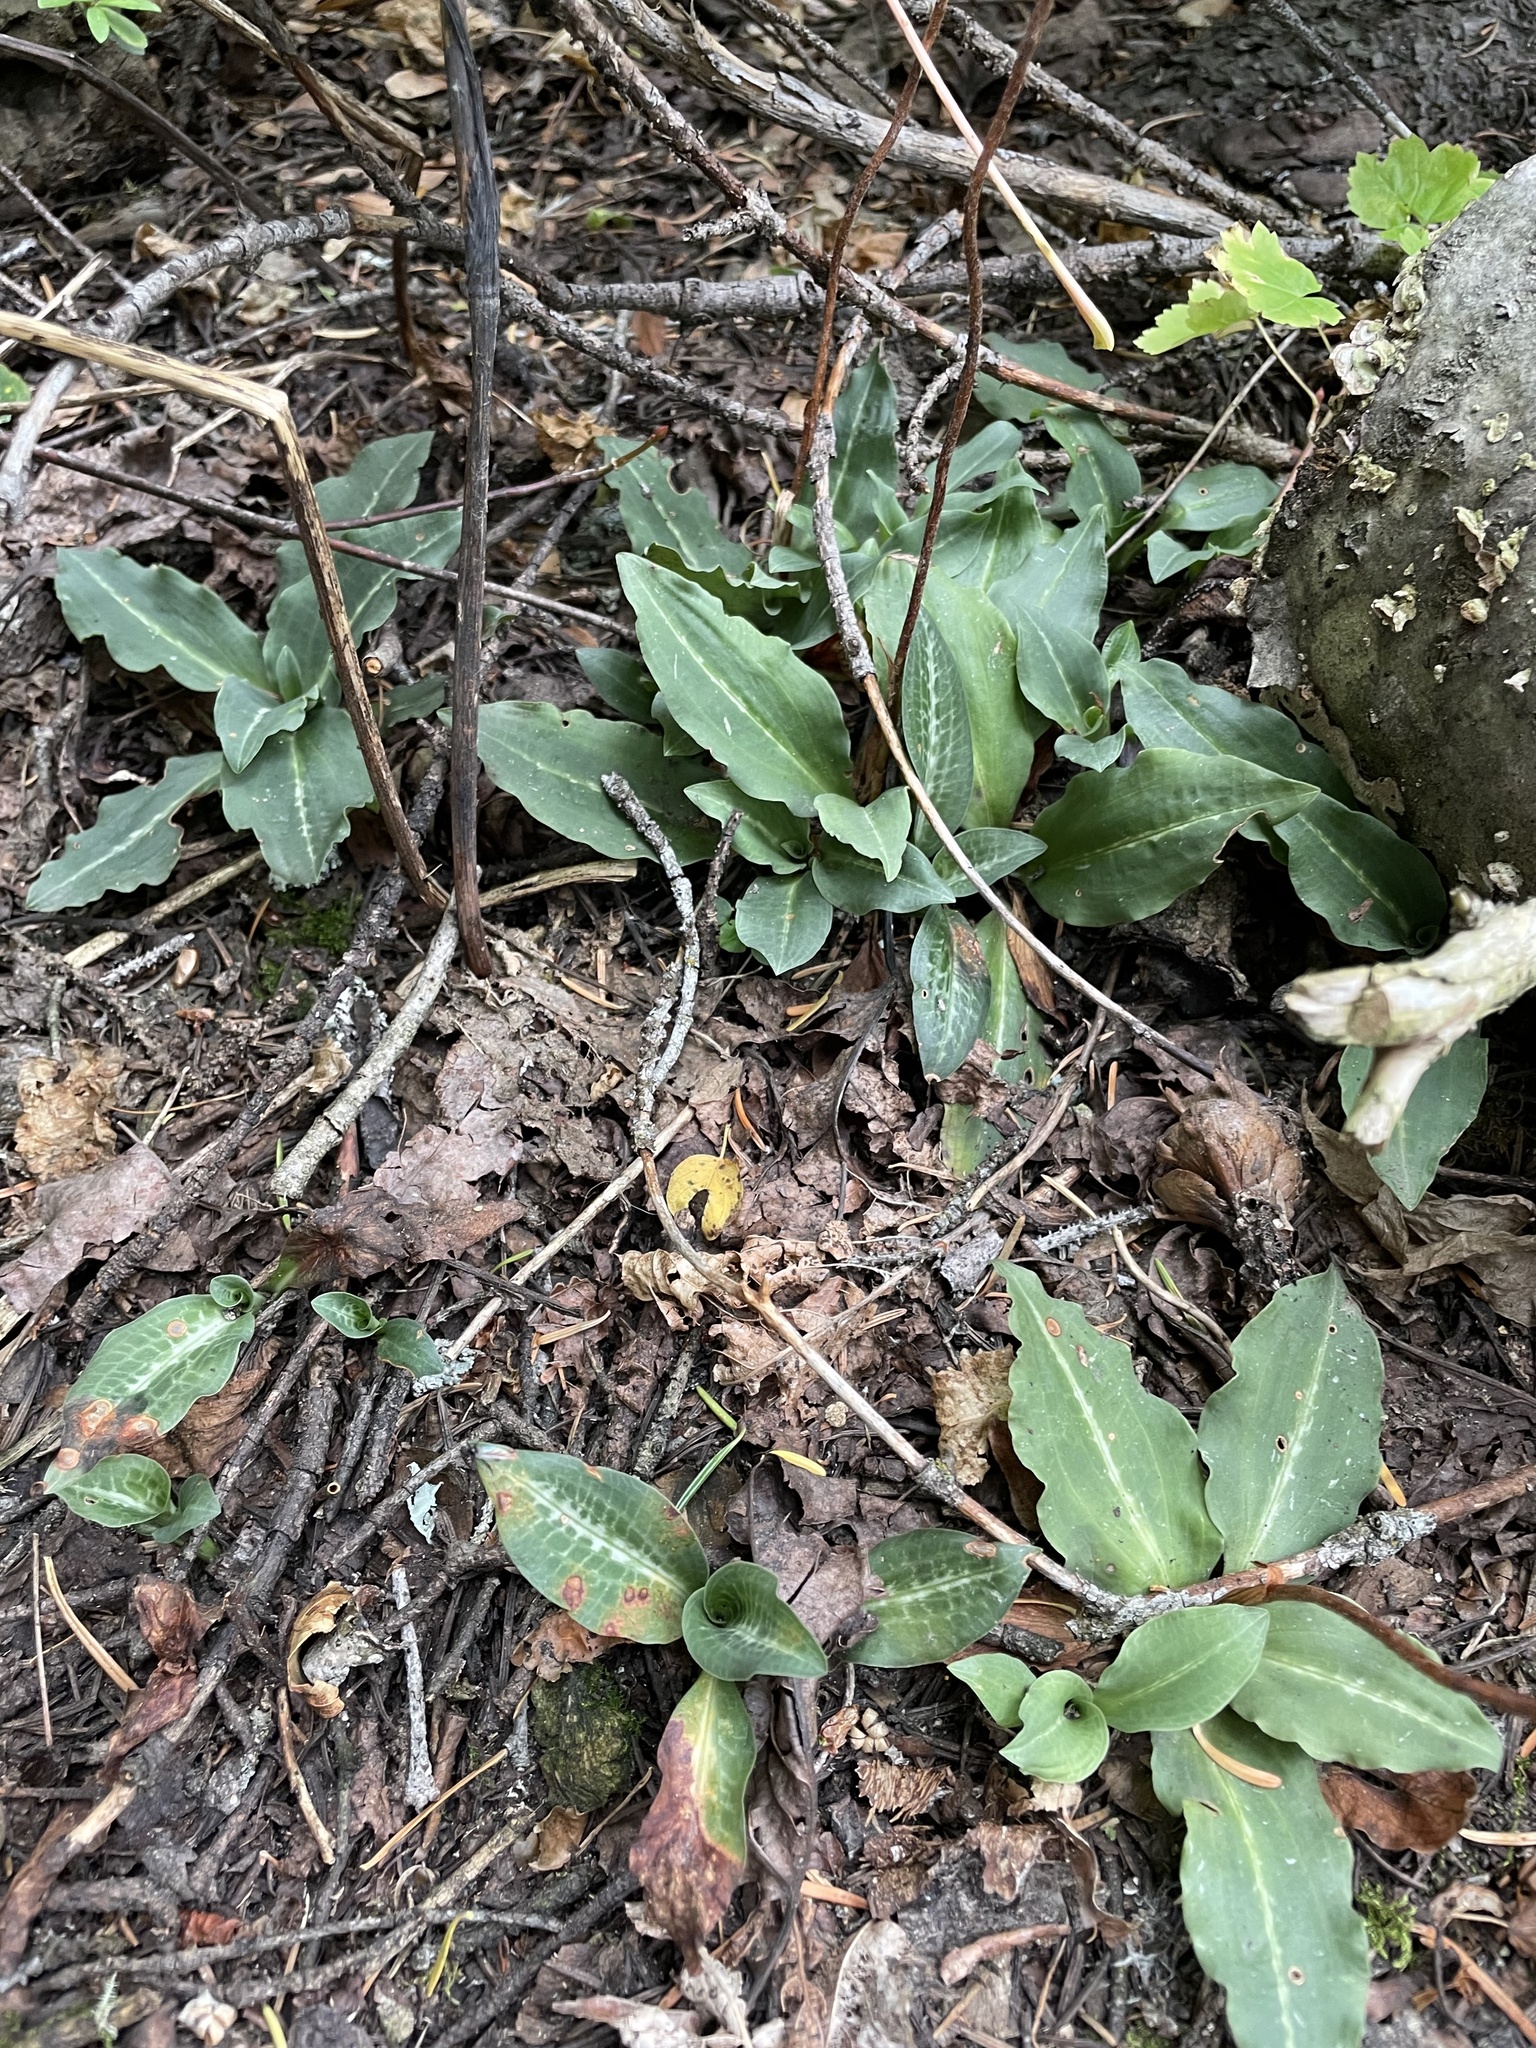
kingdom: Plantae
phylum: Tracheophyta
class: Liliopsida
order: Asparagales
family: Orchidaceae
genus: Goodyera
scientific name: Goodyera oblongifolia
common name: Giant rattlesnake-plantain
